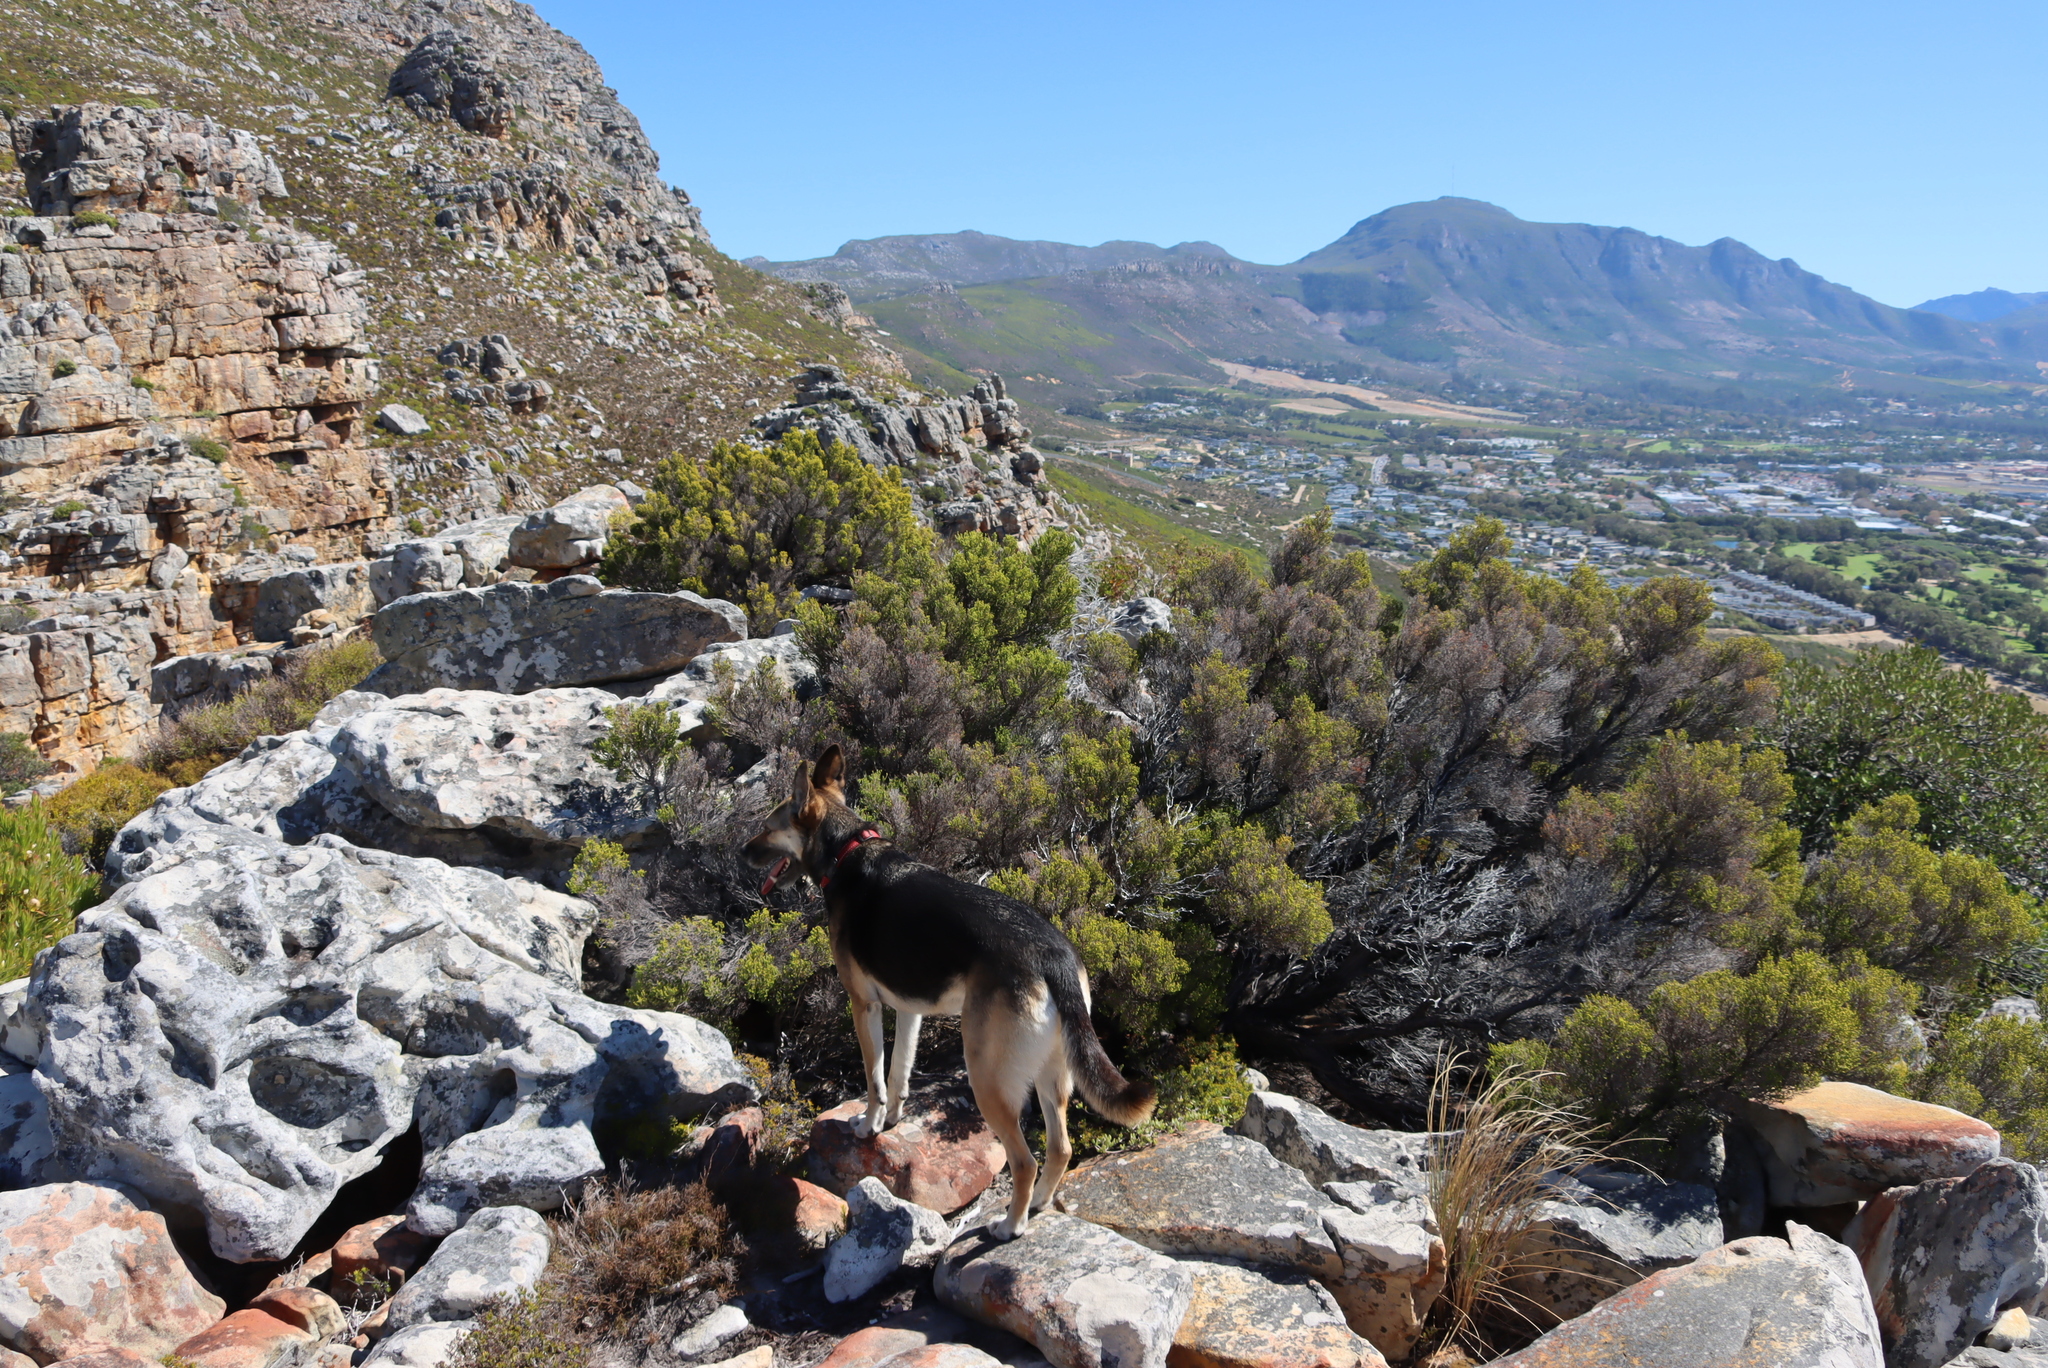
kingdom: Plantae
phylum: Tracheophyta
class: Magnoliopsida
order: Ericales
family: Ericaceae
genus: Erica
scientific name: Erica tristis
